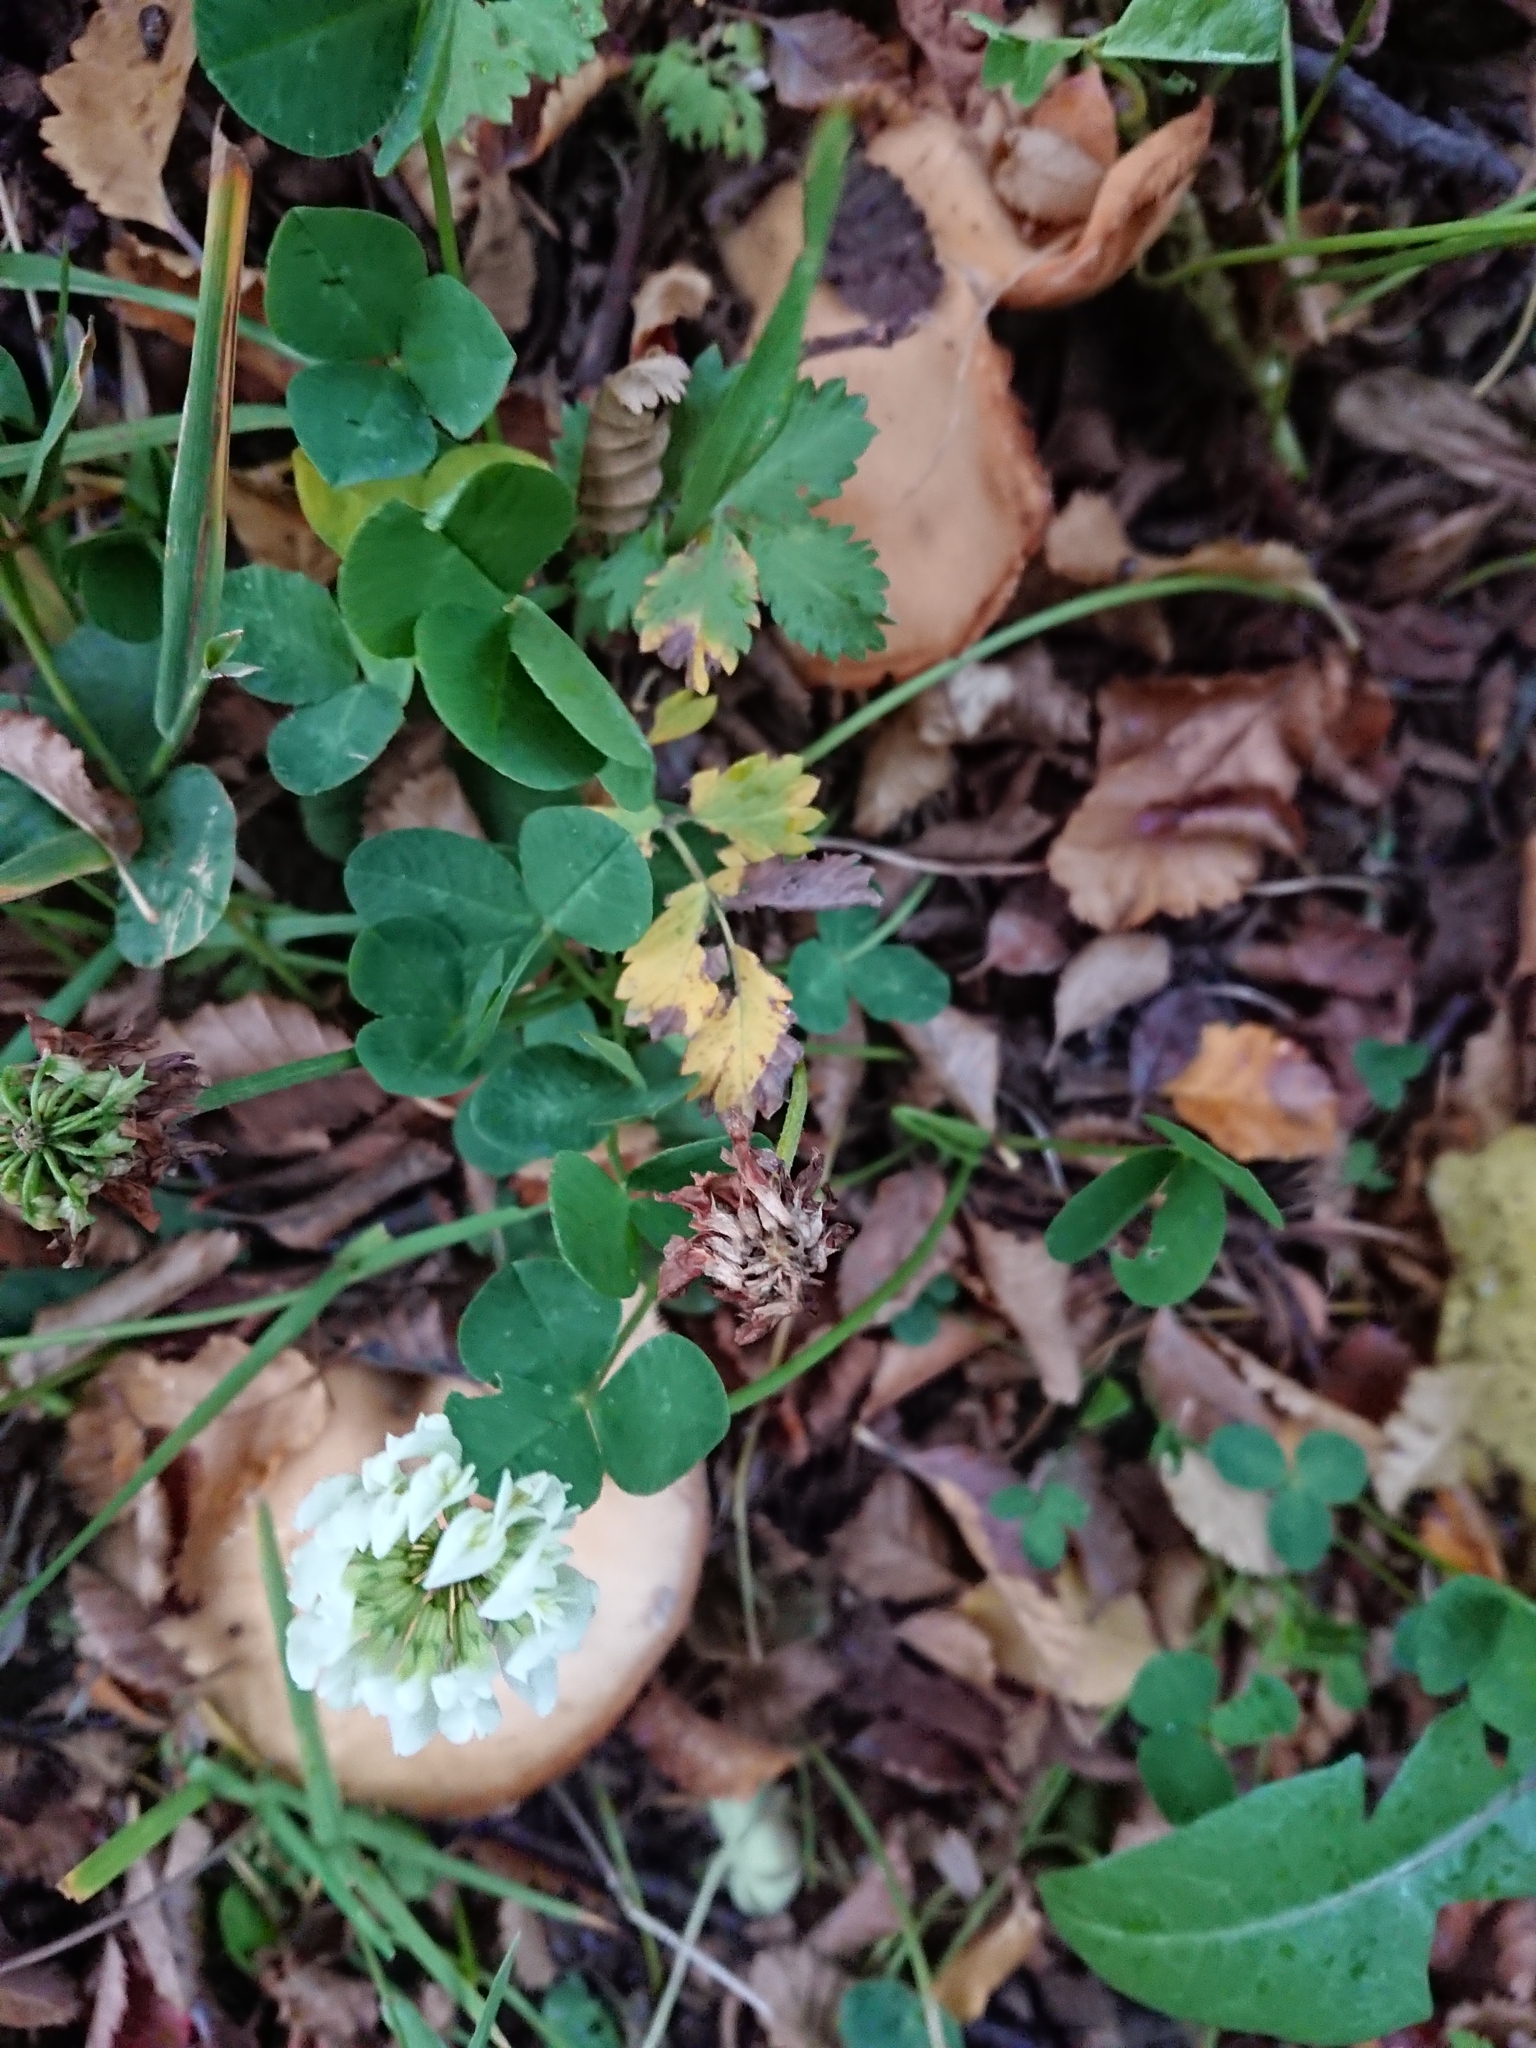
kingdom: Plantae
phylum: Tracheophyta
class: Magnoliopsida
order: Fabales
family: Fabaceae
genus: Trifolium
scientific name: Trifolium repens
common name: White clover
